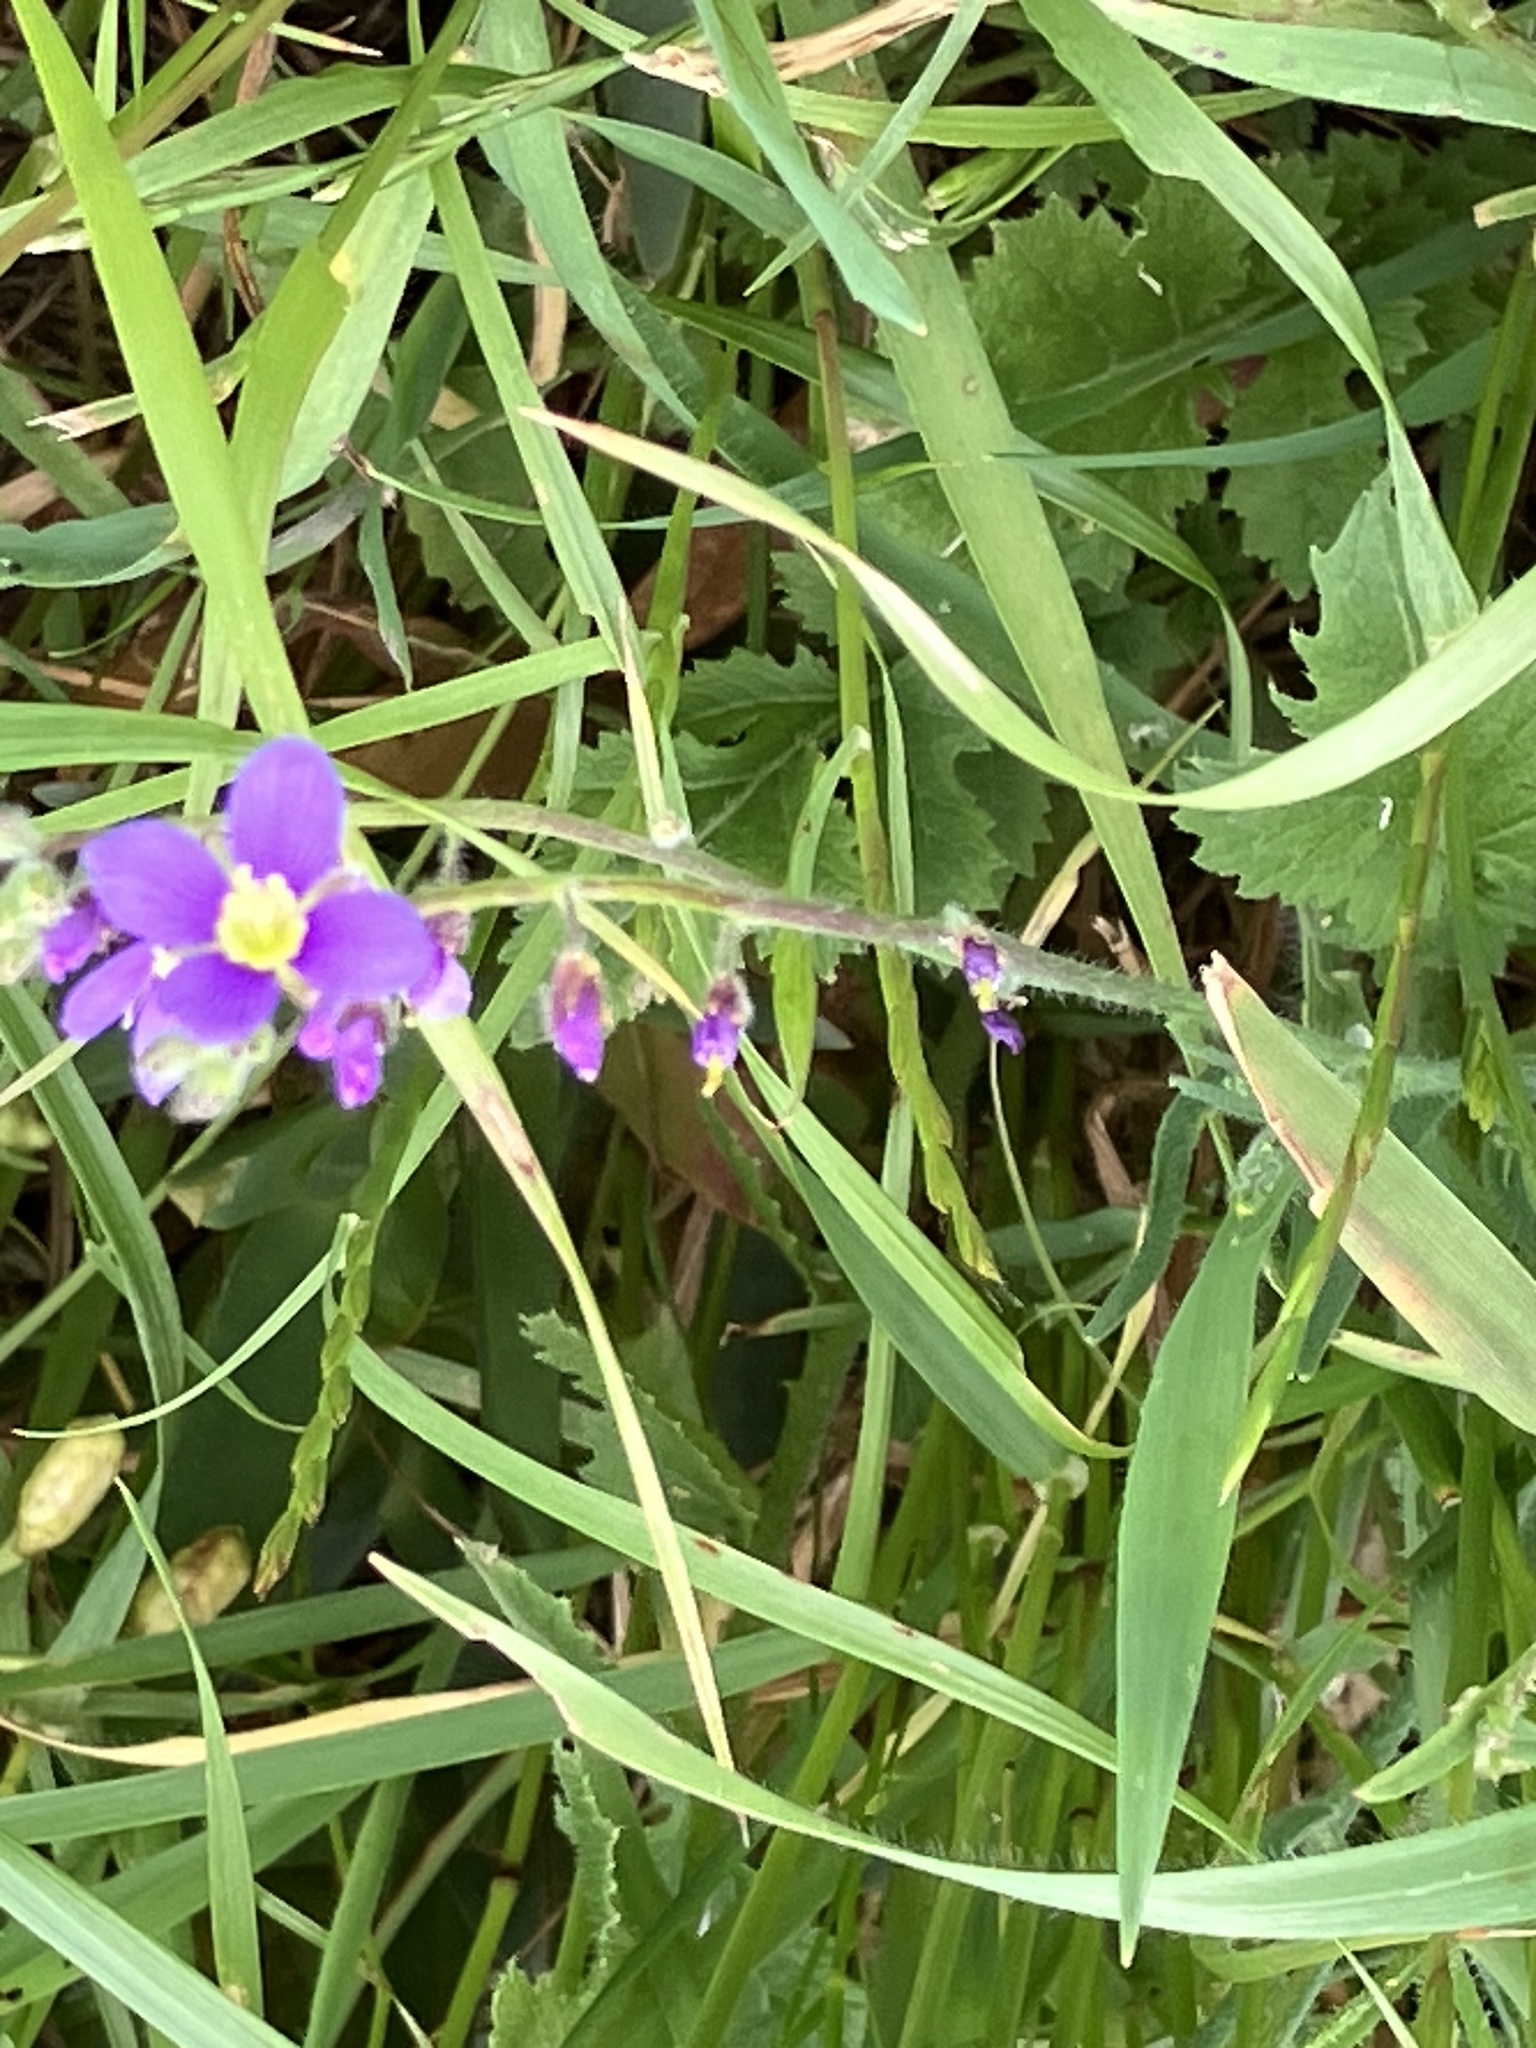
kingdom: Plantae
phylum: Tracheophyta
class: Magnoliopsida
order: Brassicales
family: Brassicaceae
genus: Heliophila
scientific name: Heliophila africana
